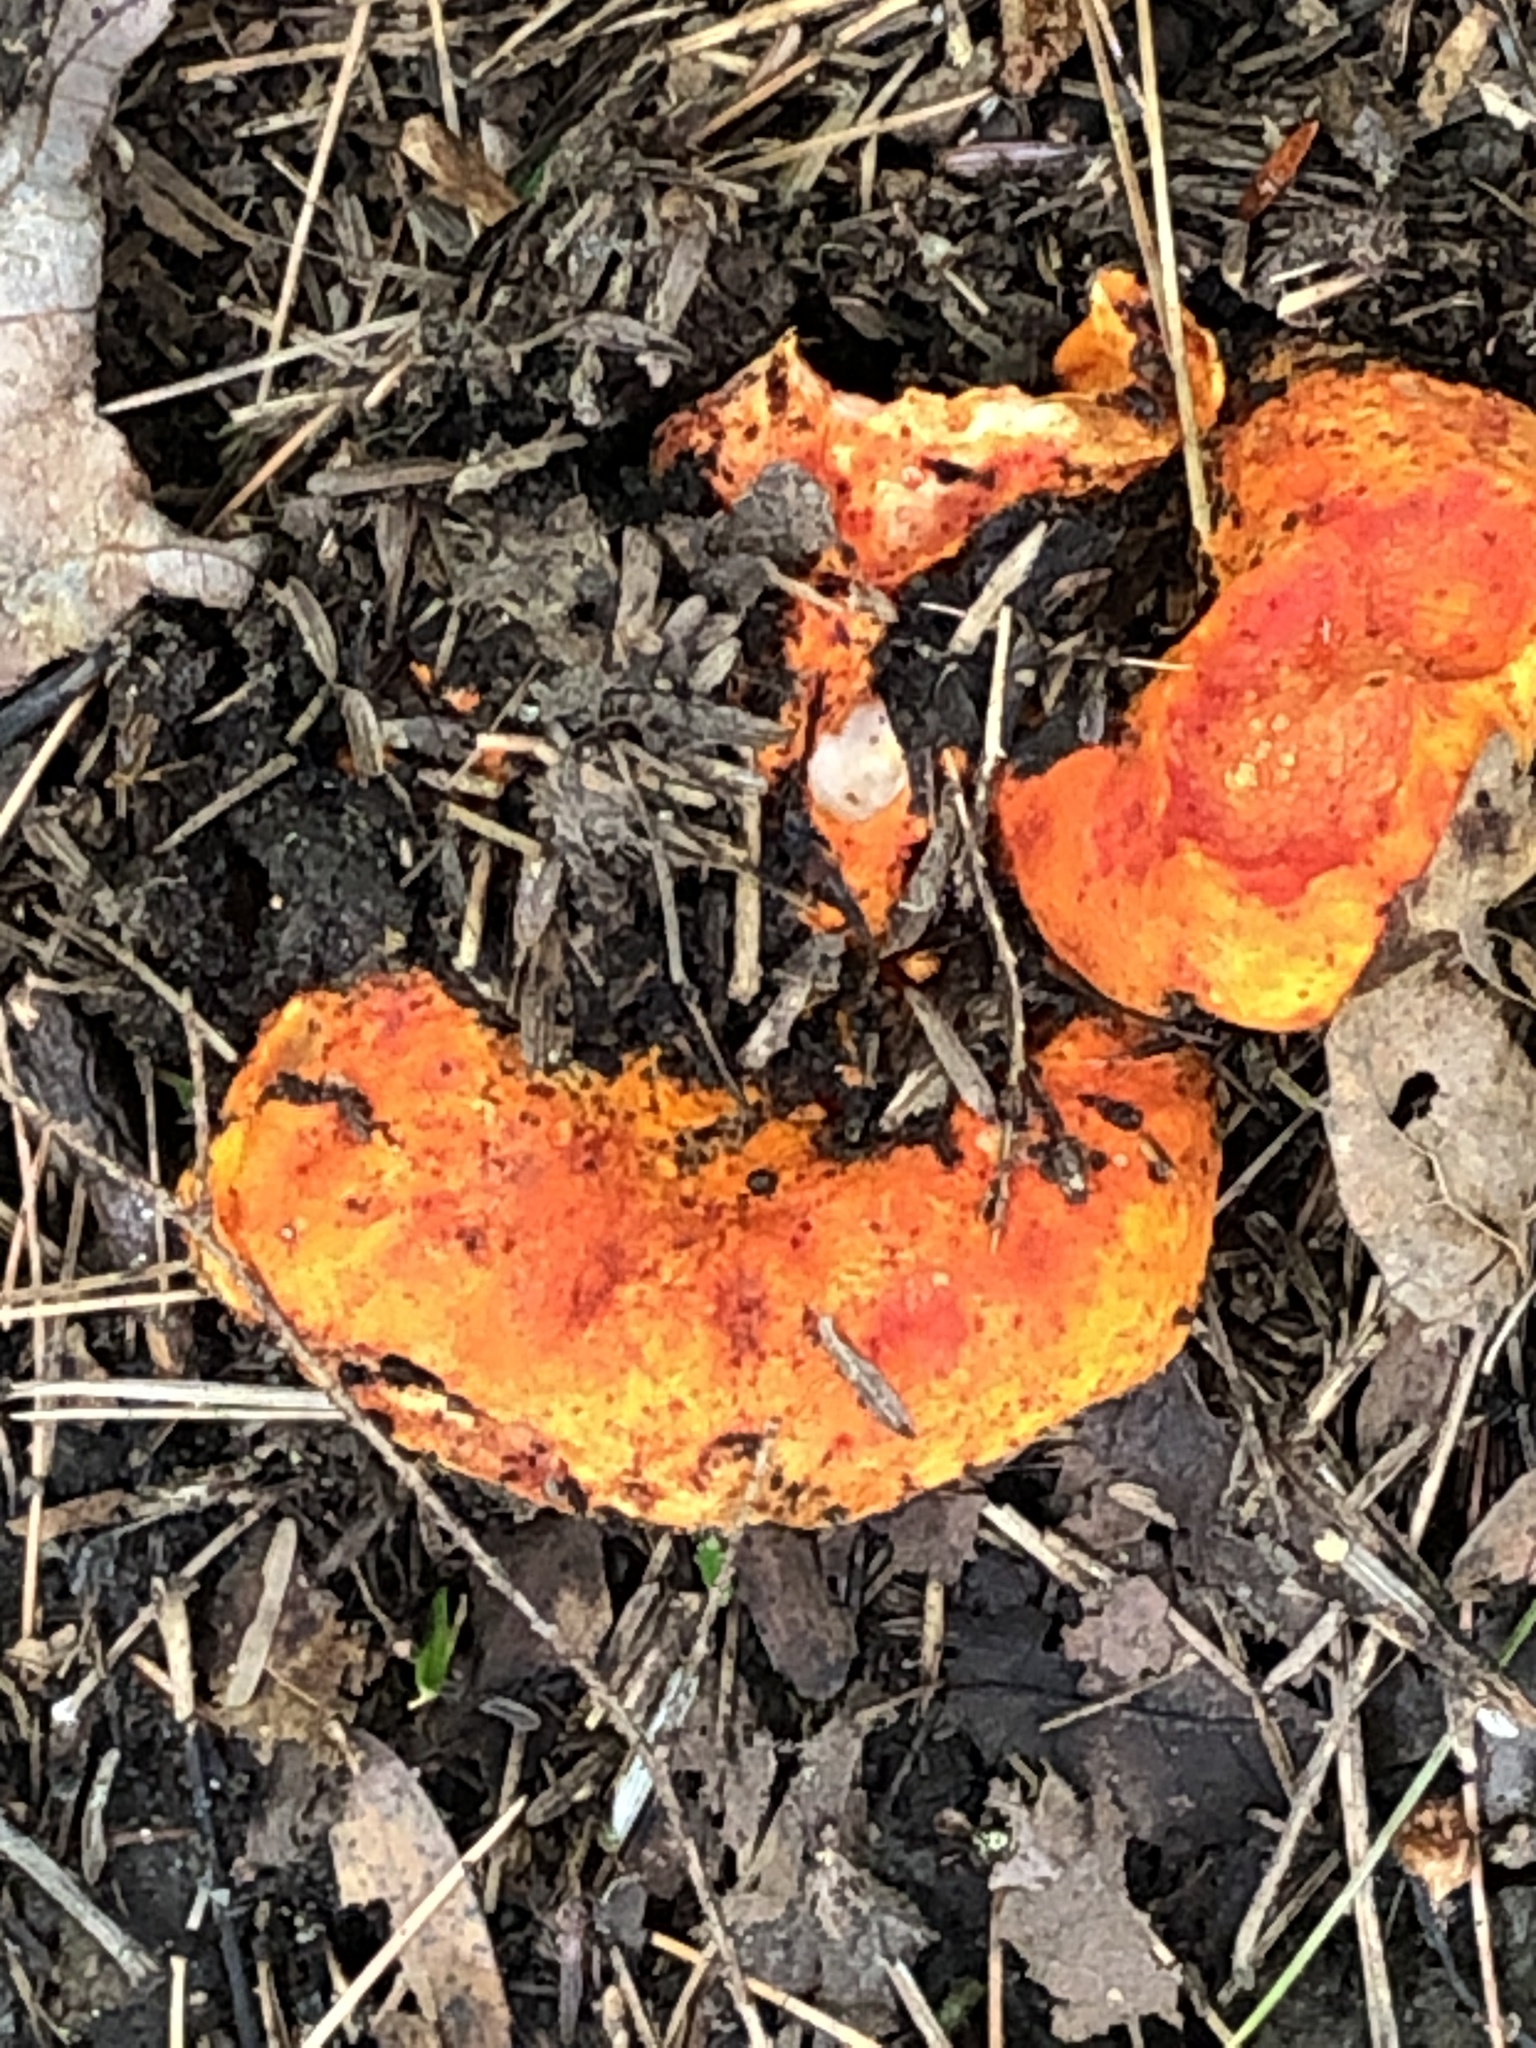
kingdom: Fungi
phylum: Ascomycota
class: Sordariomycetes
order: Hypocreales
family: Hypocreaceae
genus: Hypomyces
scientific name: Hypomyces lactifluorum
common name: Lobster mushroom
